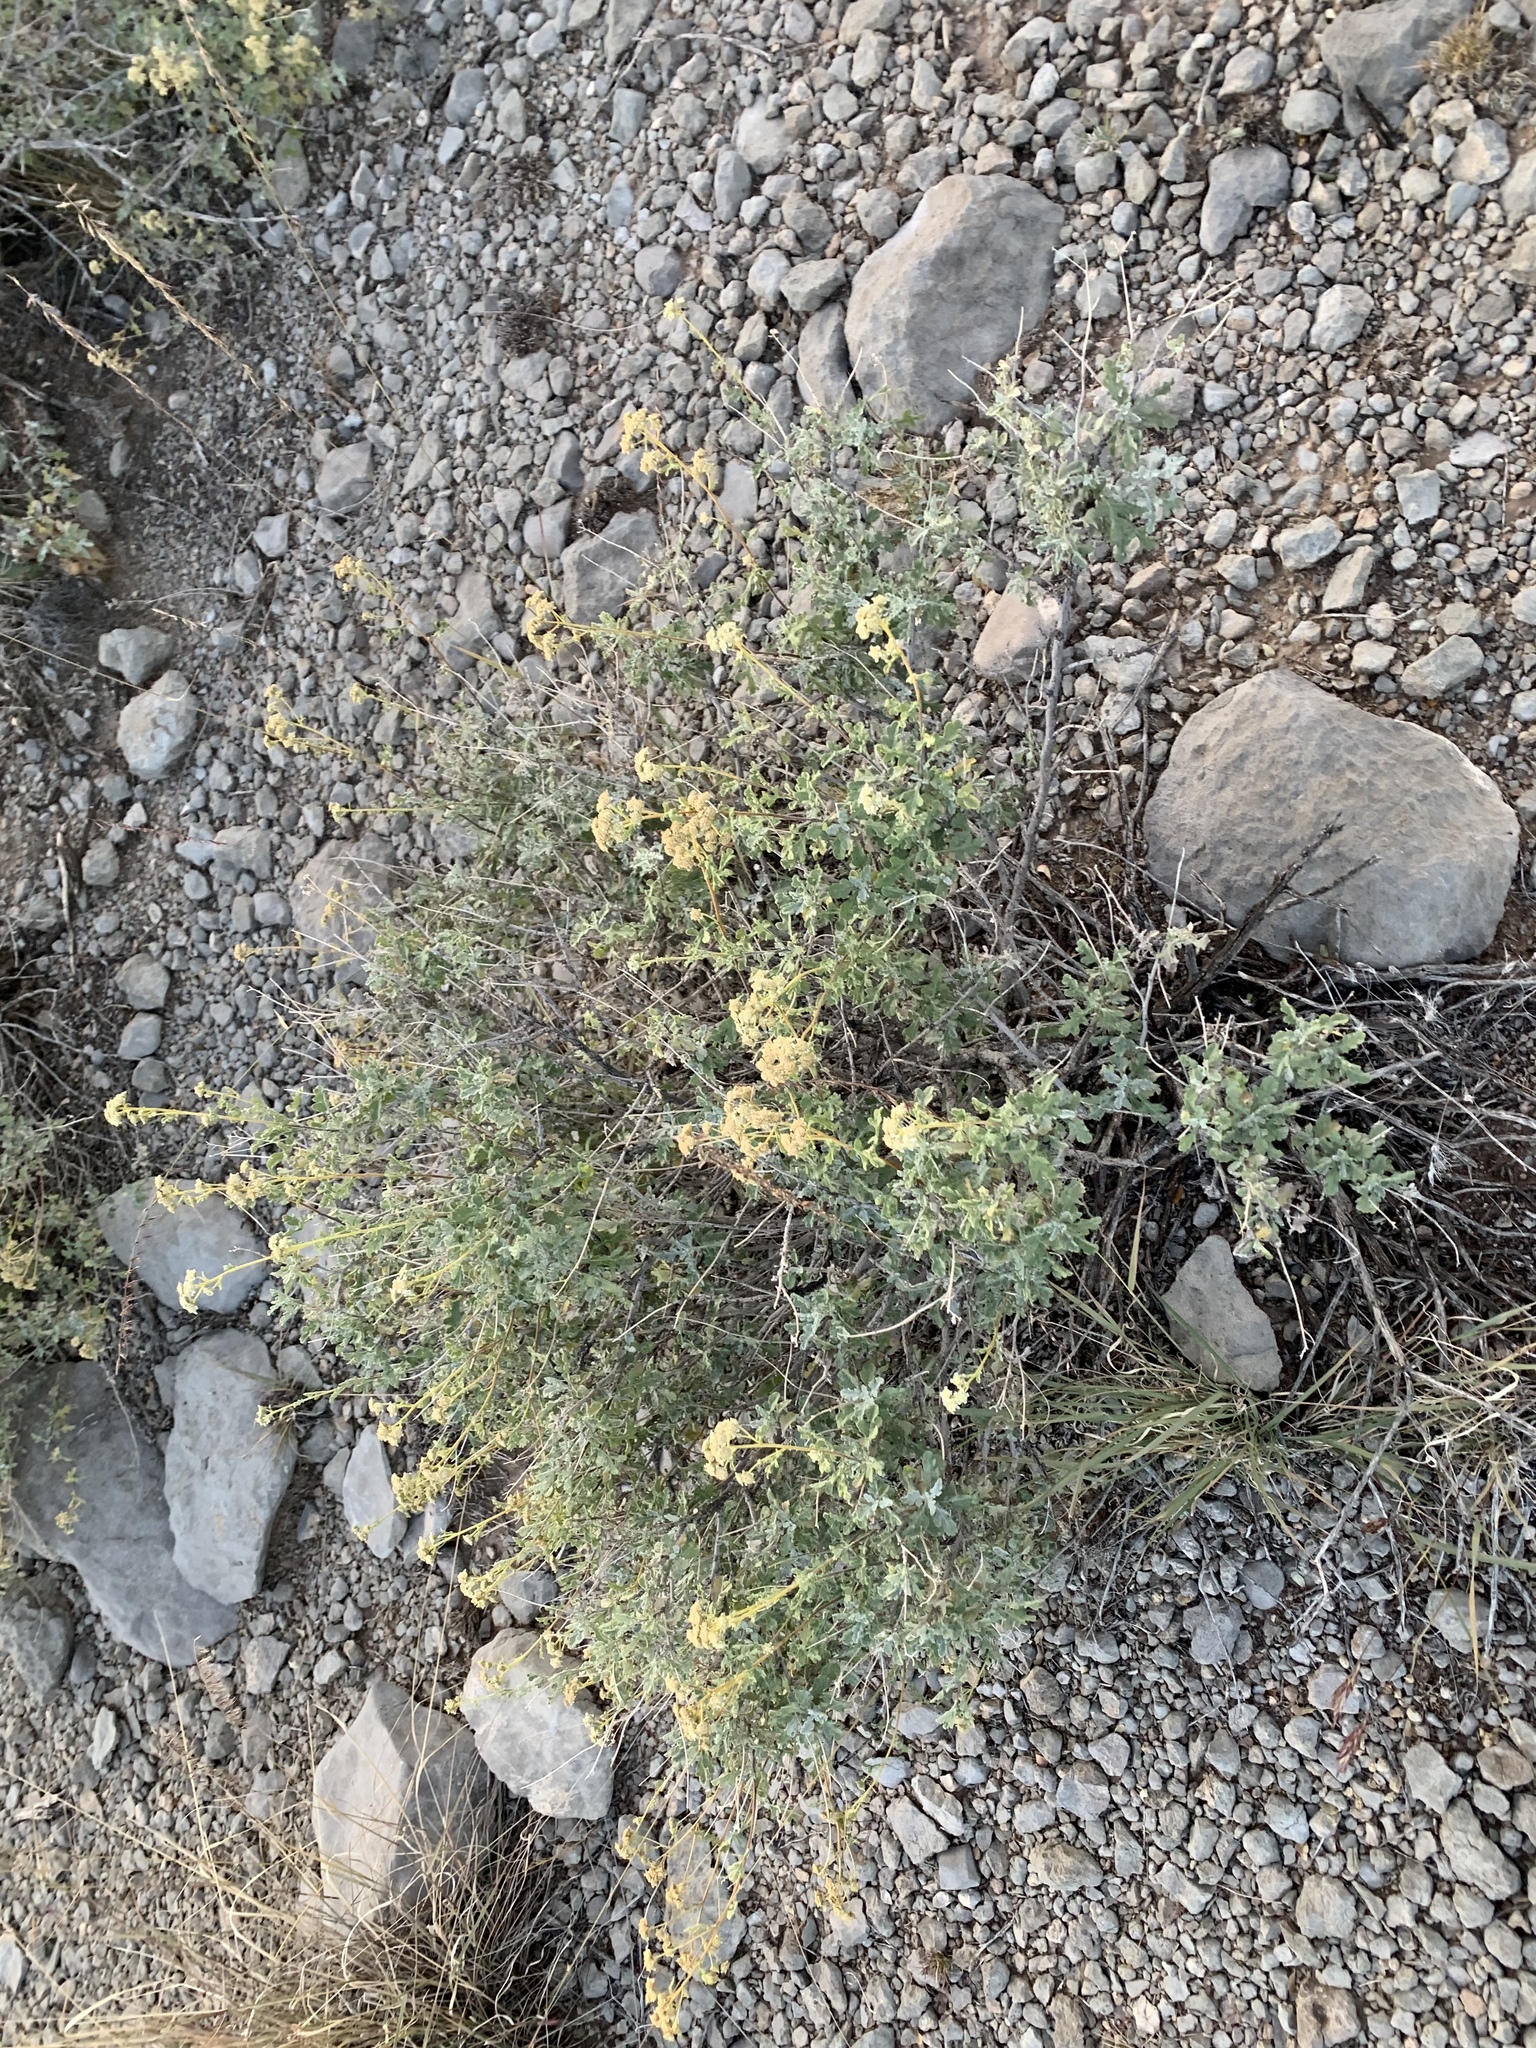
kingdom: Plantae
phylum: Tracheophyta
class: Magnoliopsida
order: Asterales
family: Asteraceae
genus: Parthenium
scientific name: Parthenium incanum
